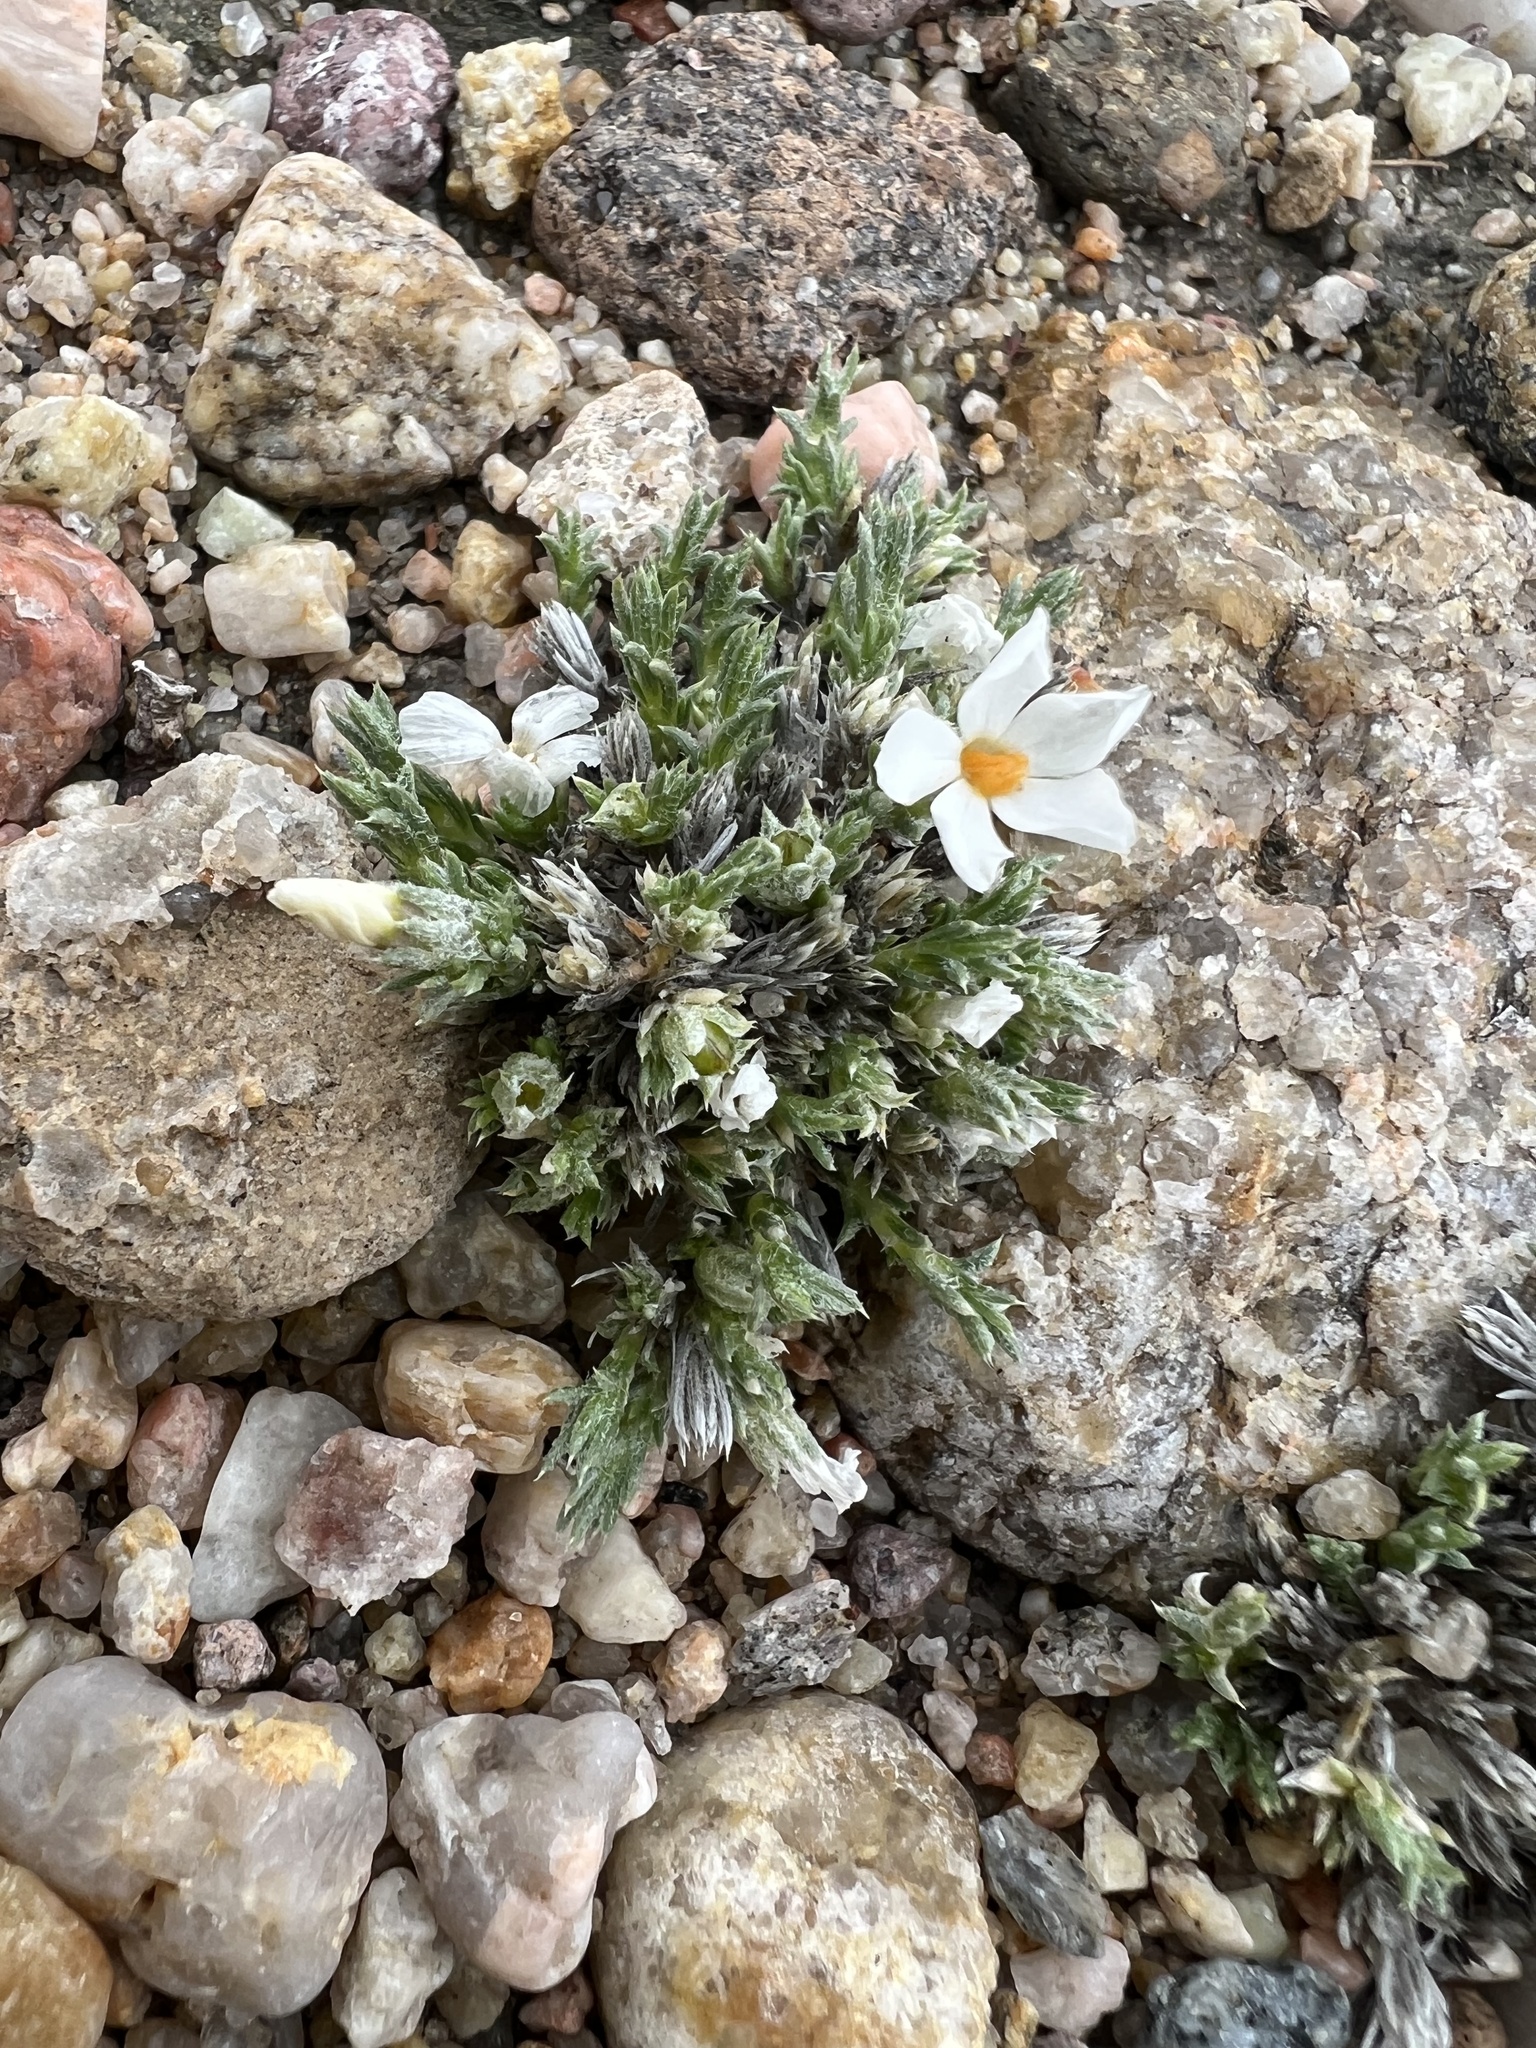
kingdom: Plantae
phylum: Tracheophyta
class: Magnoliopsida
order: Ericales
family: Polemoniaceae
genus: Phlox
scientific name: Phlox hoodii
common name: Moss phlox
